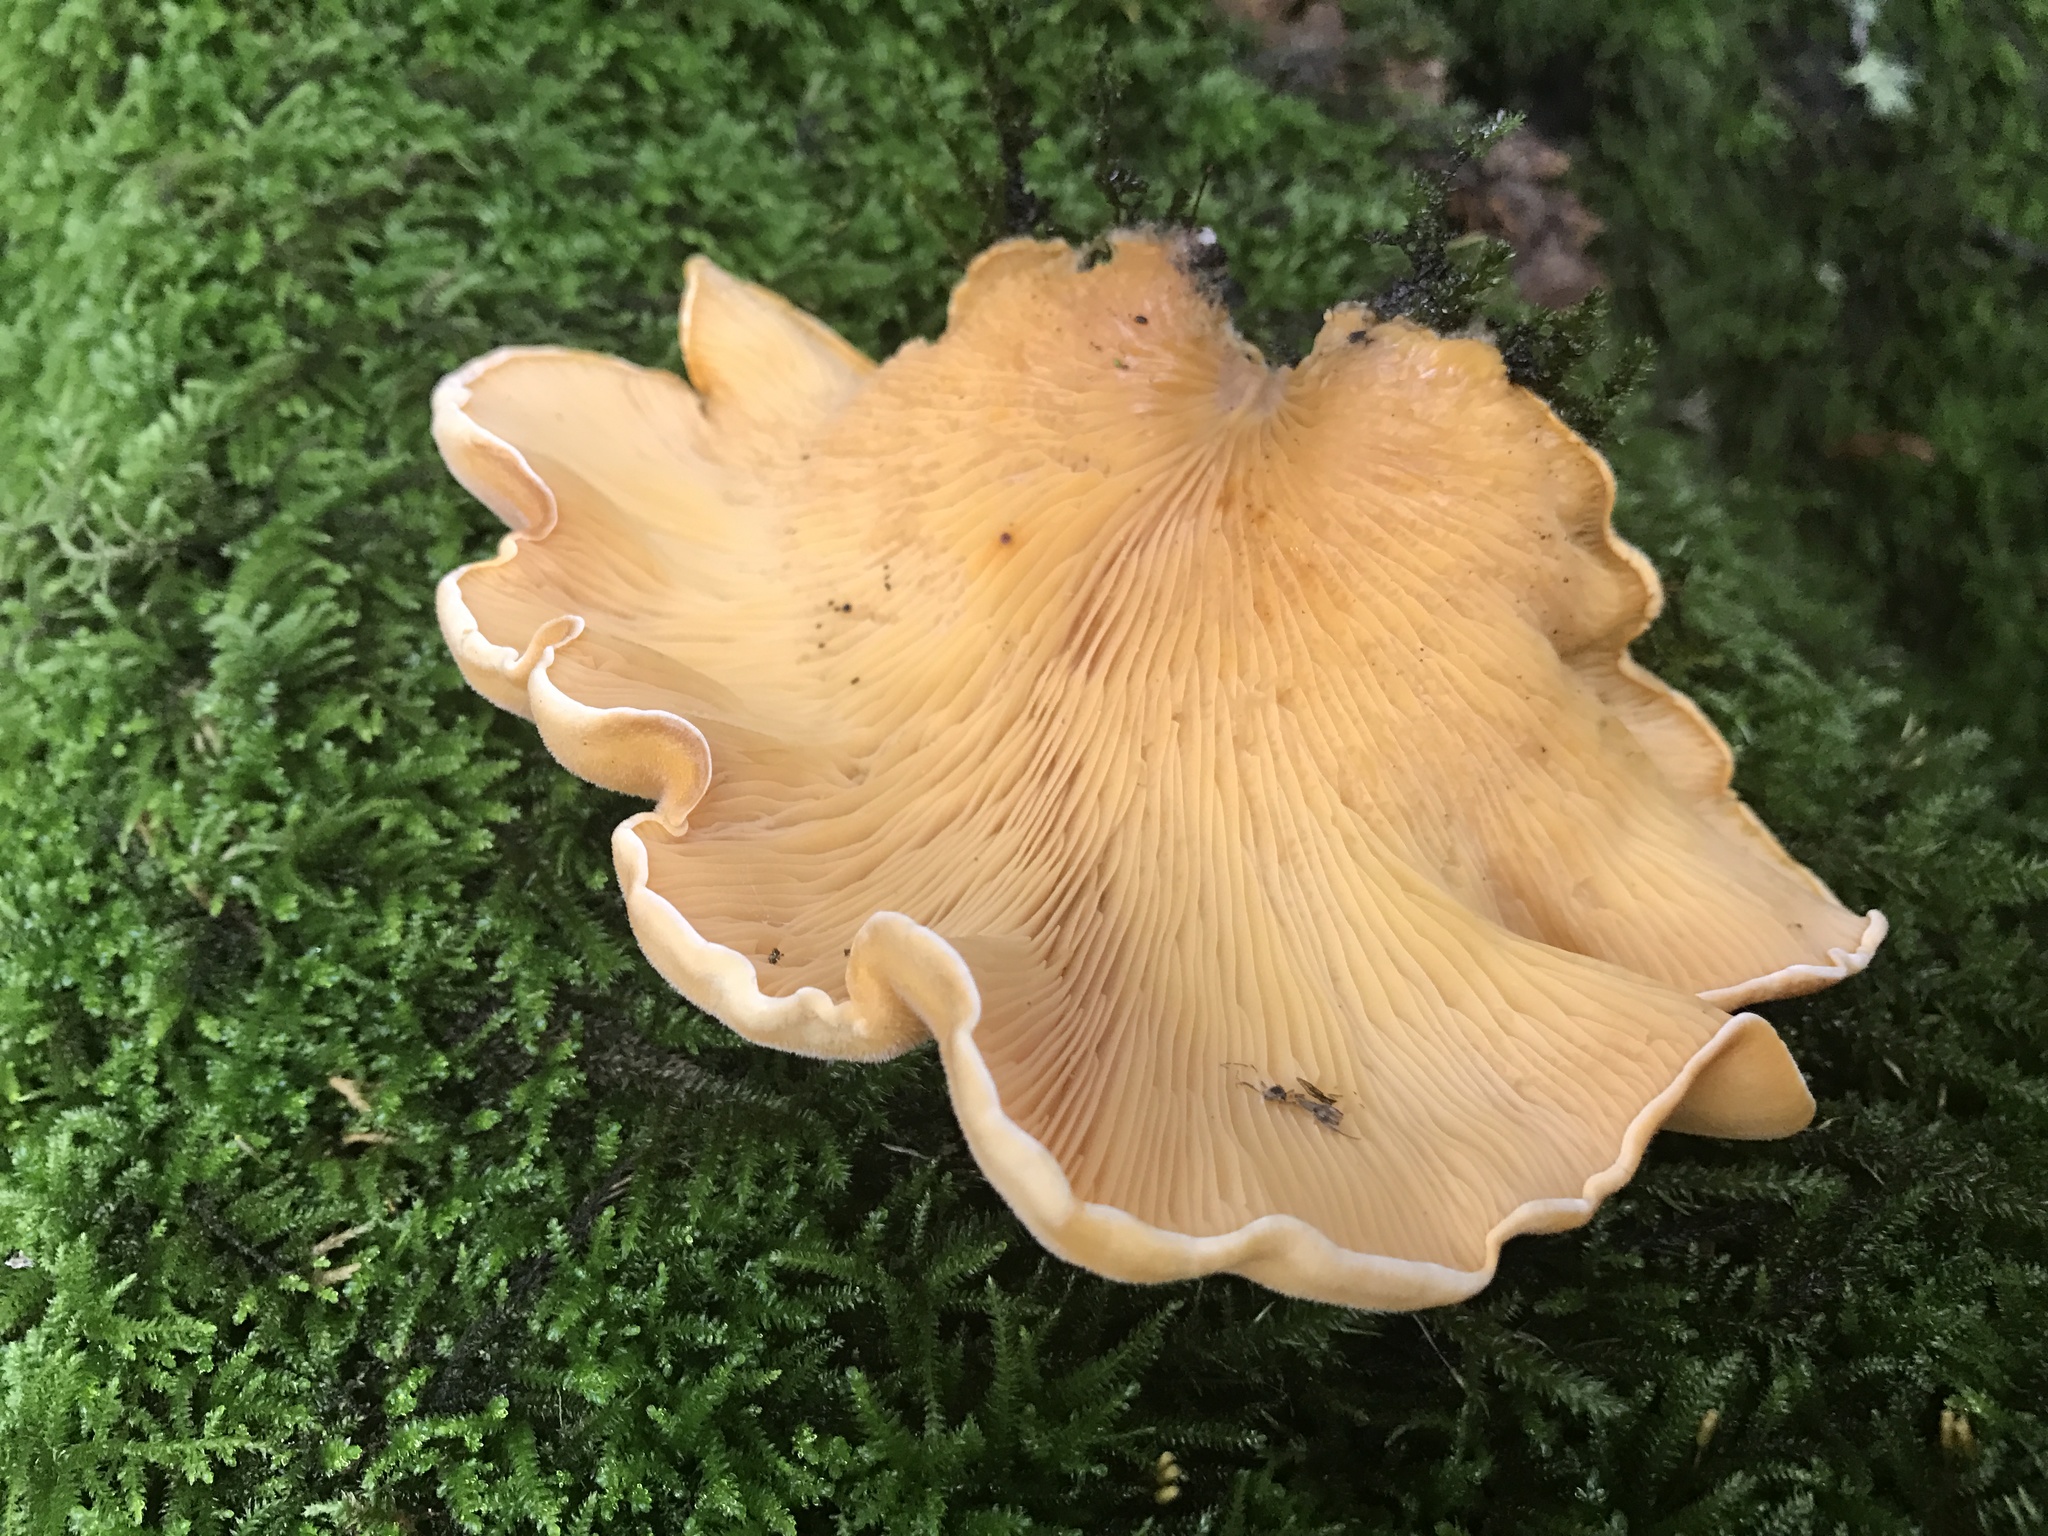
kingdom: Fungi
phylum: Basidiomycota
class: Agaricomycetes
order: Agaricales
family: Phyllotopsidaceae
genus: Phyllotopsis
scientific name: Phyllotopsis nidulans
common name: Orange mock oyster
